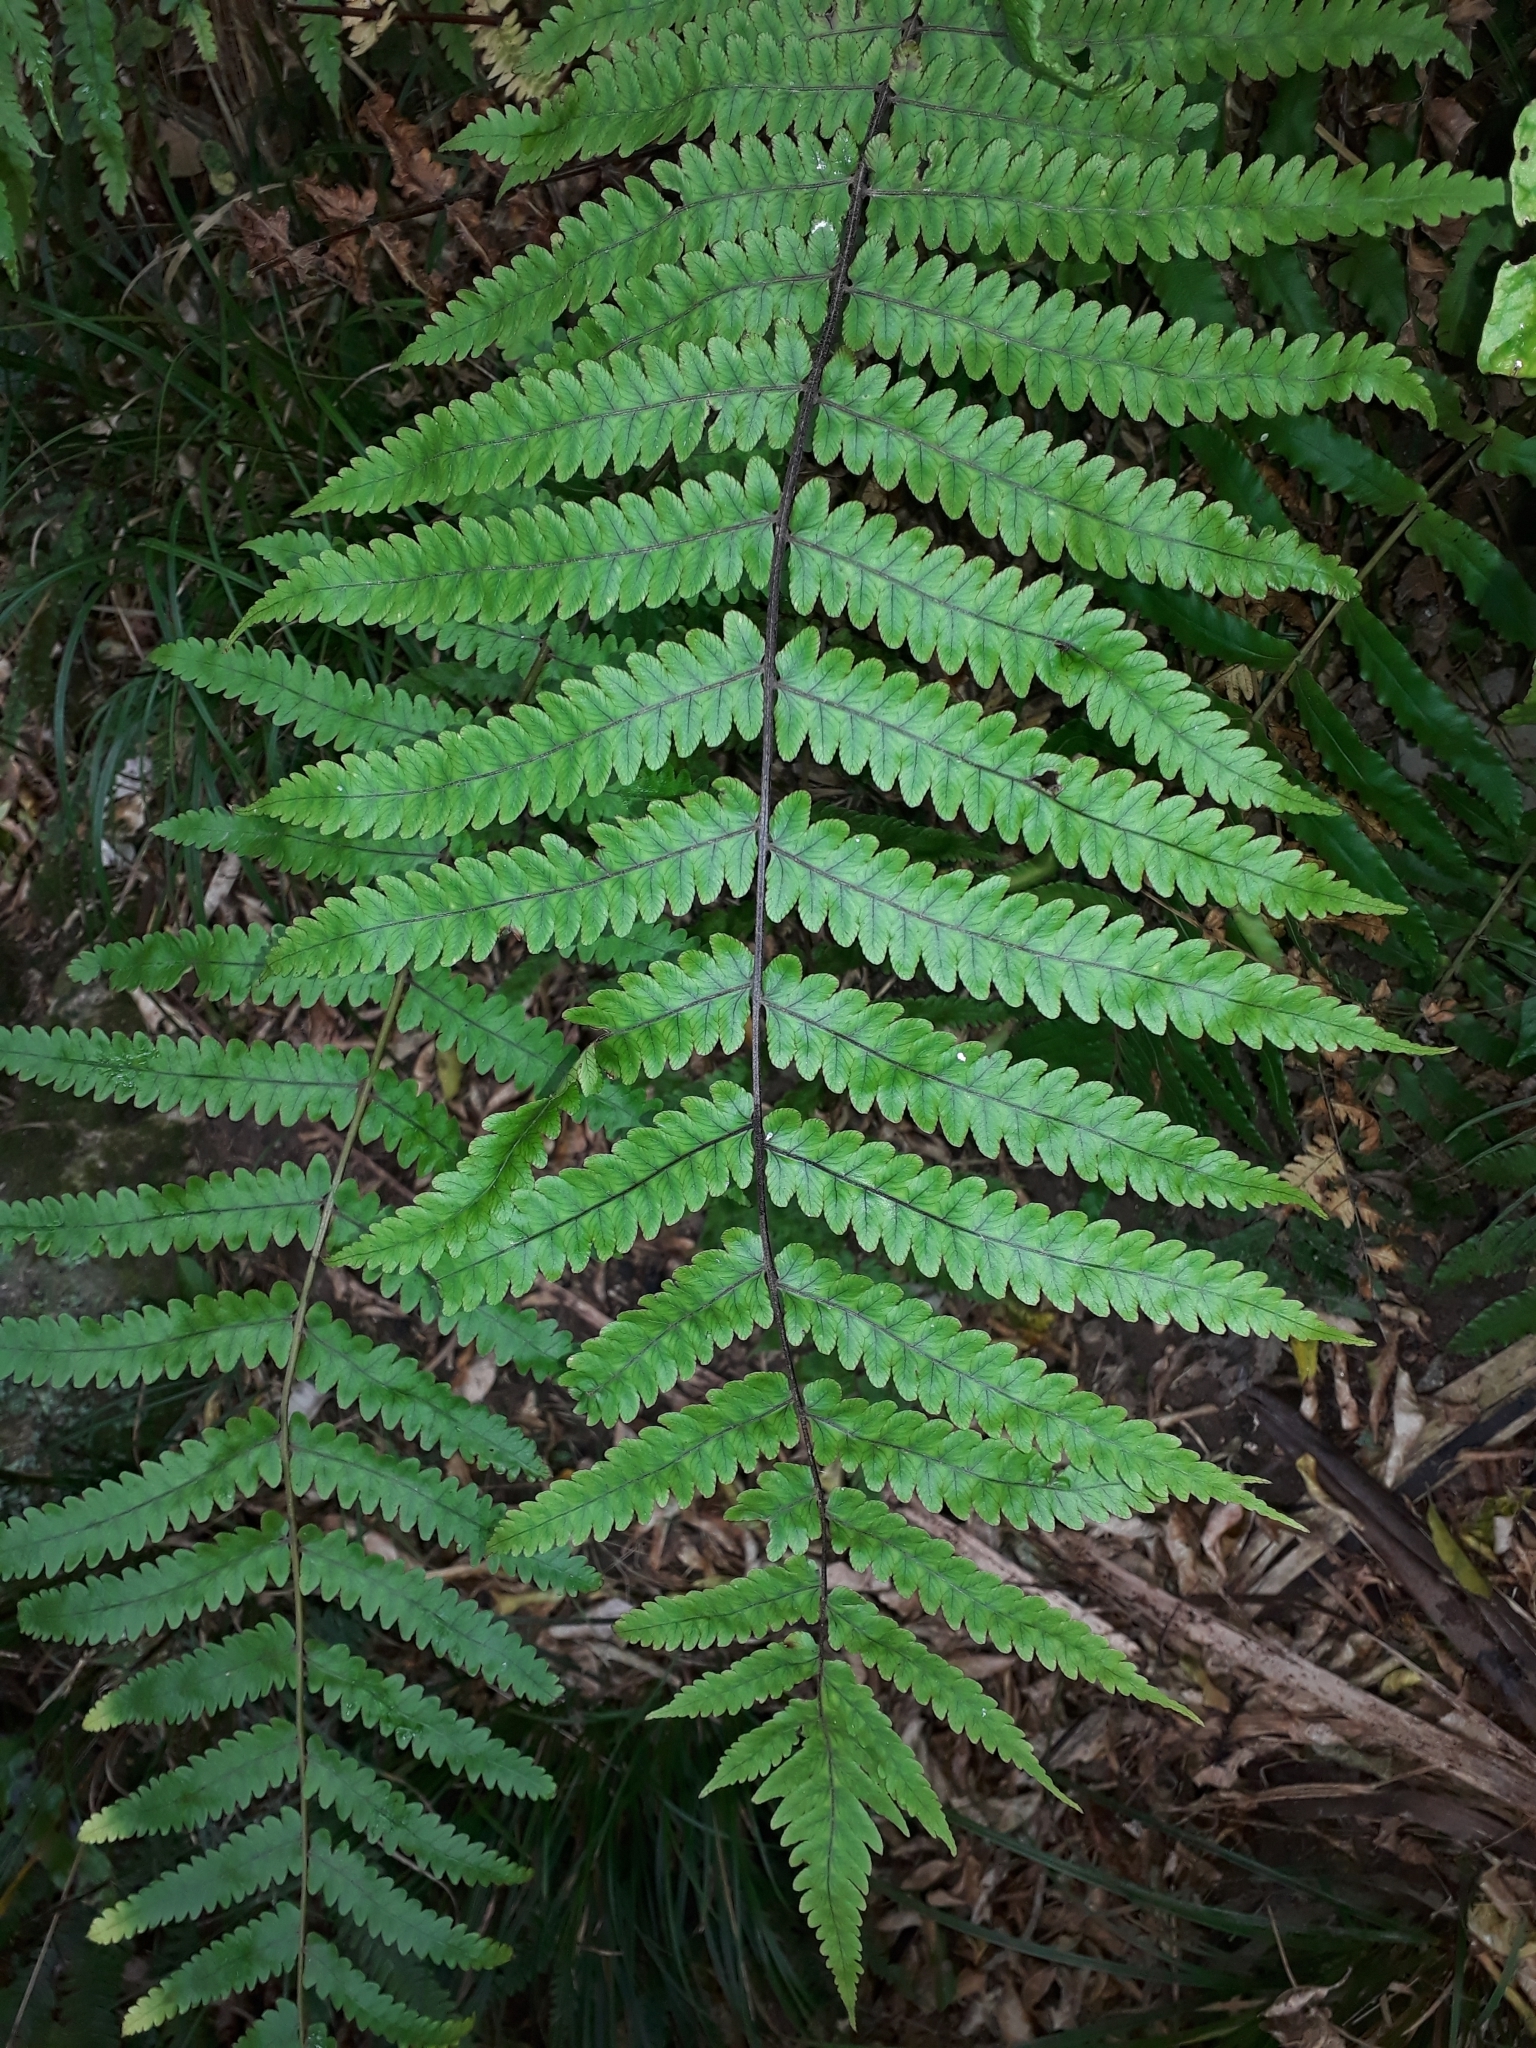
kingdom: Plantae
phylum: Tracheophyta
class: Polypodiopsida
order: Polypodiales
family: Thelypteridaceae
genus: Pakau
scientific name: Pakau pennigera
